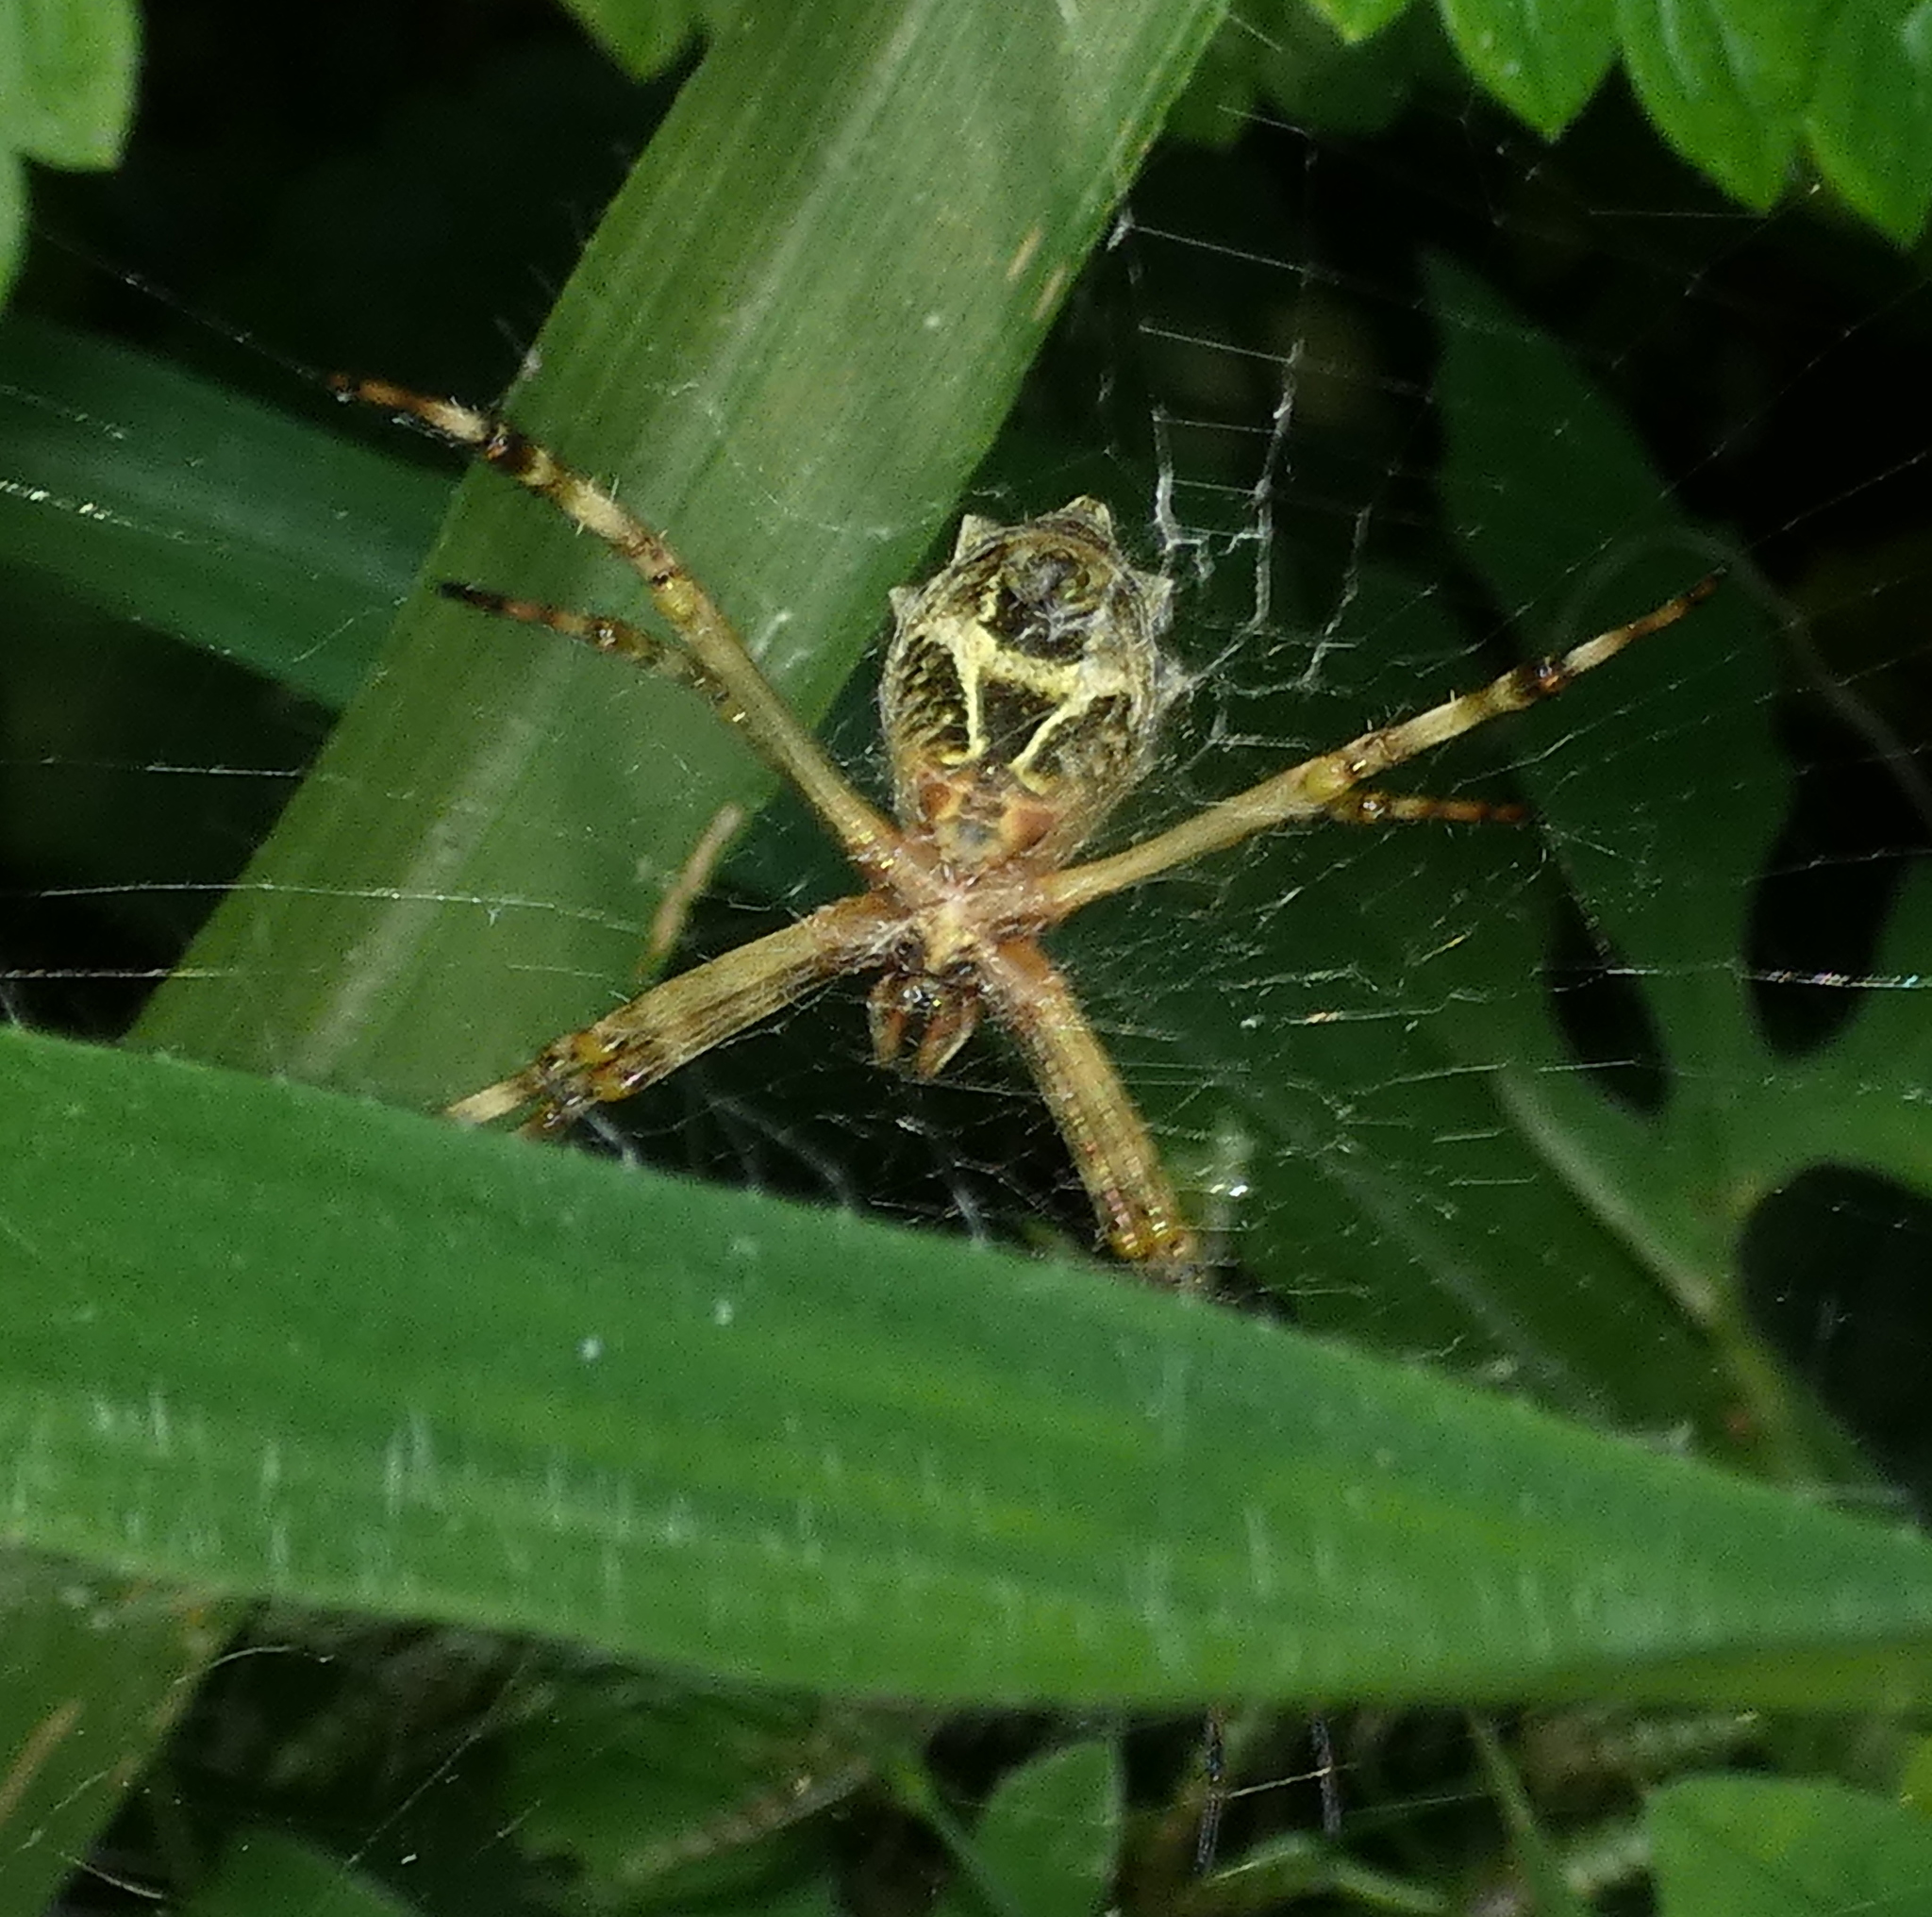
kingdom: Animalia
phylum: Arthropoda
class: Arachnida
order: Araneae
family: Araneidae
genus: Argiope
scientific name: Argiope argentata
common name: Orb weavers
